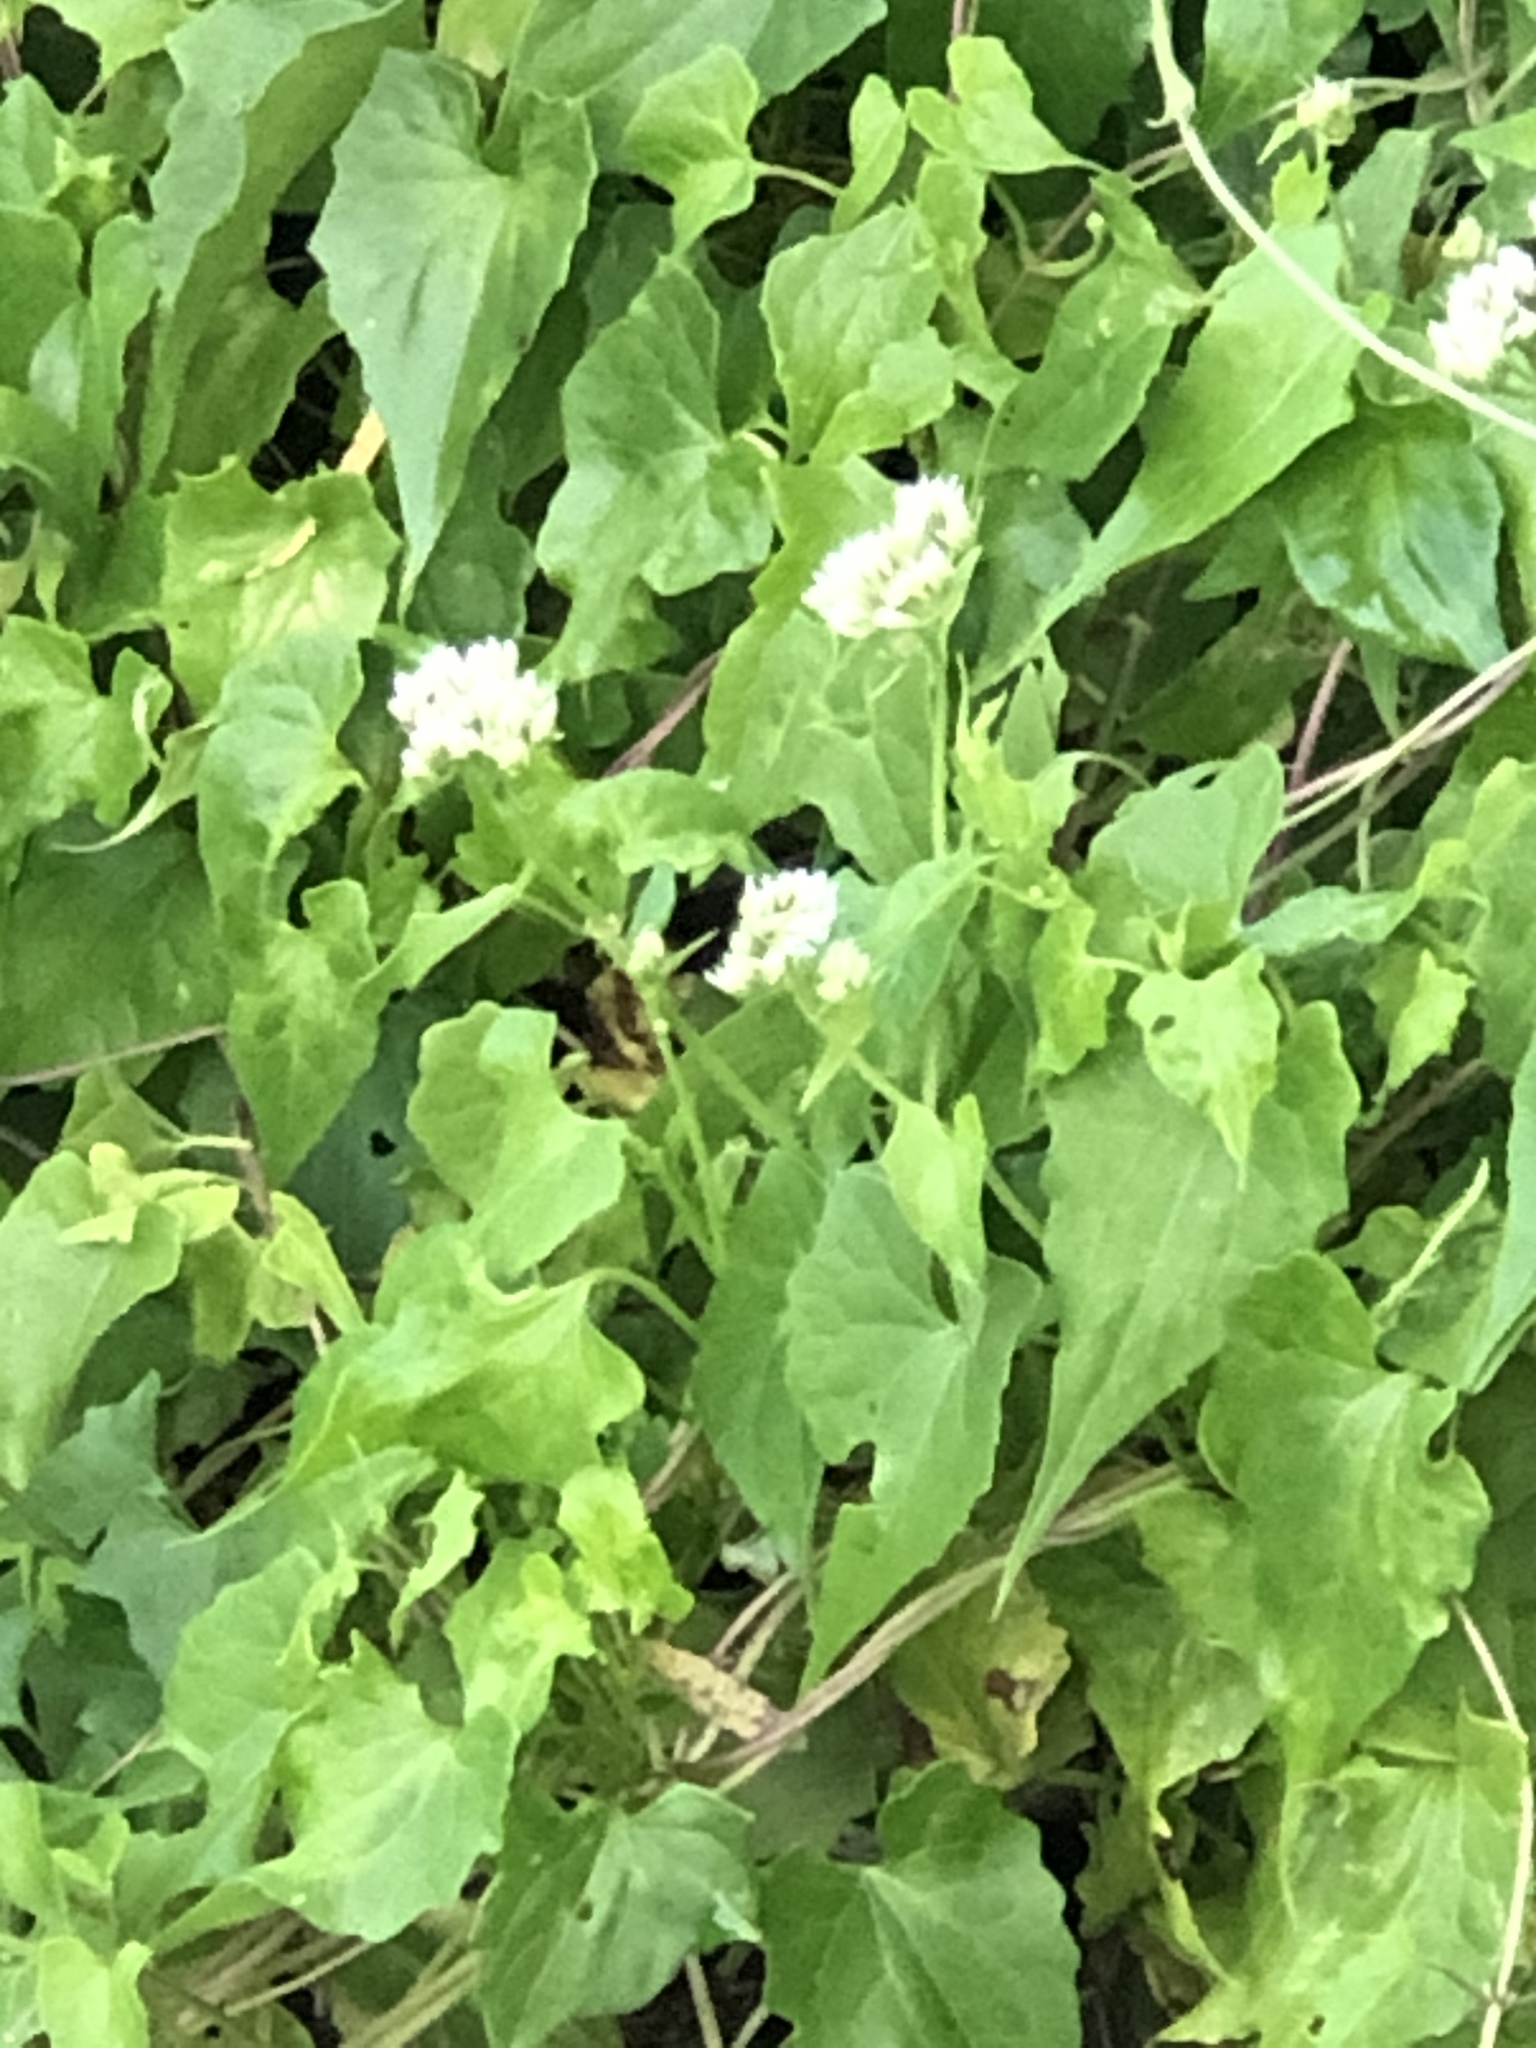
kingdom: Plantae
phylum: Tracheophyta
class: Magnoliopsida
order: Asterales
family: Asteraceae
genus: Mikania
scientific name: Mikania scandens
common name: Climbing hempvine
